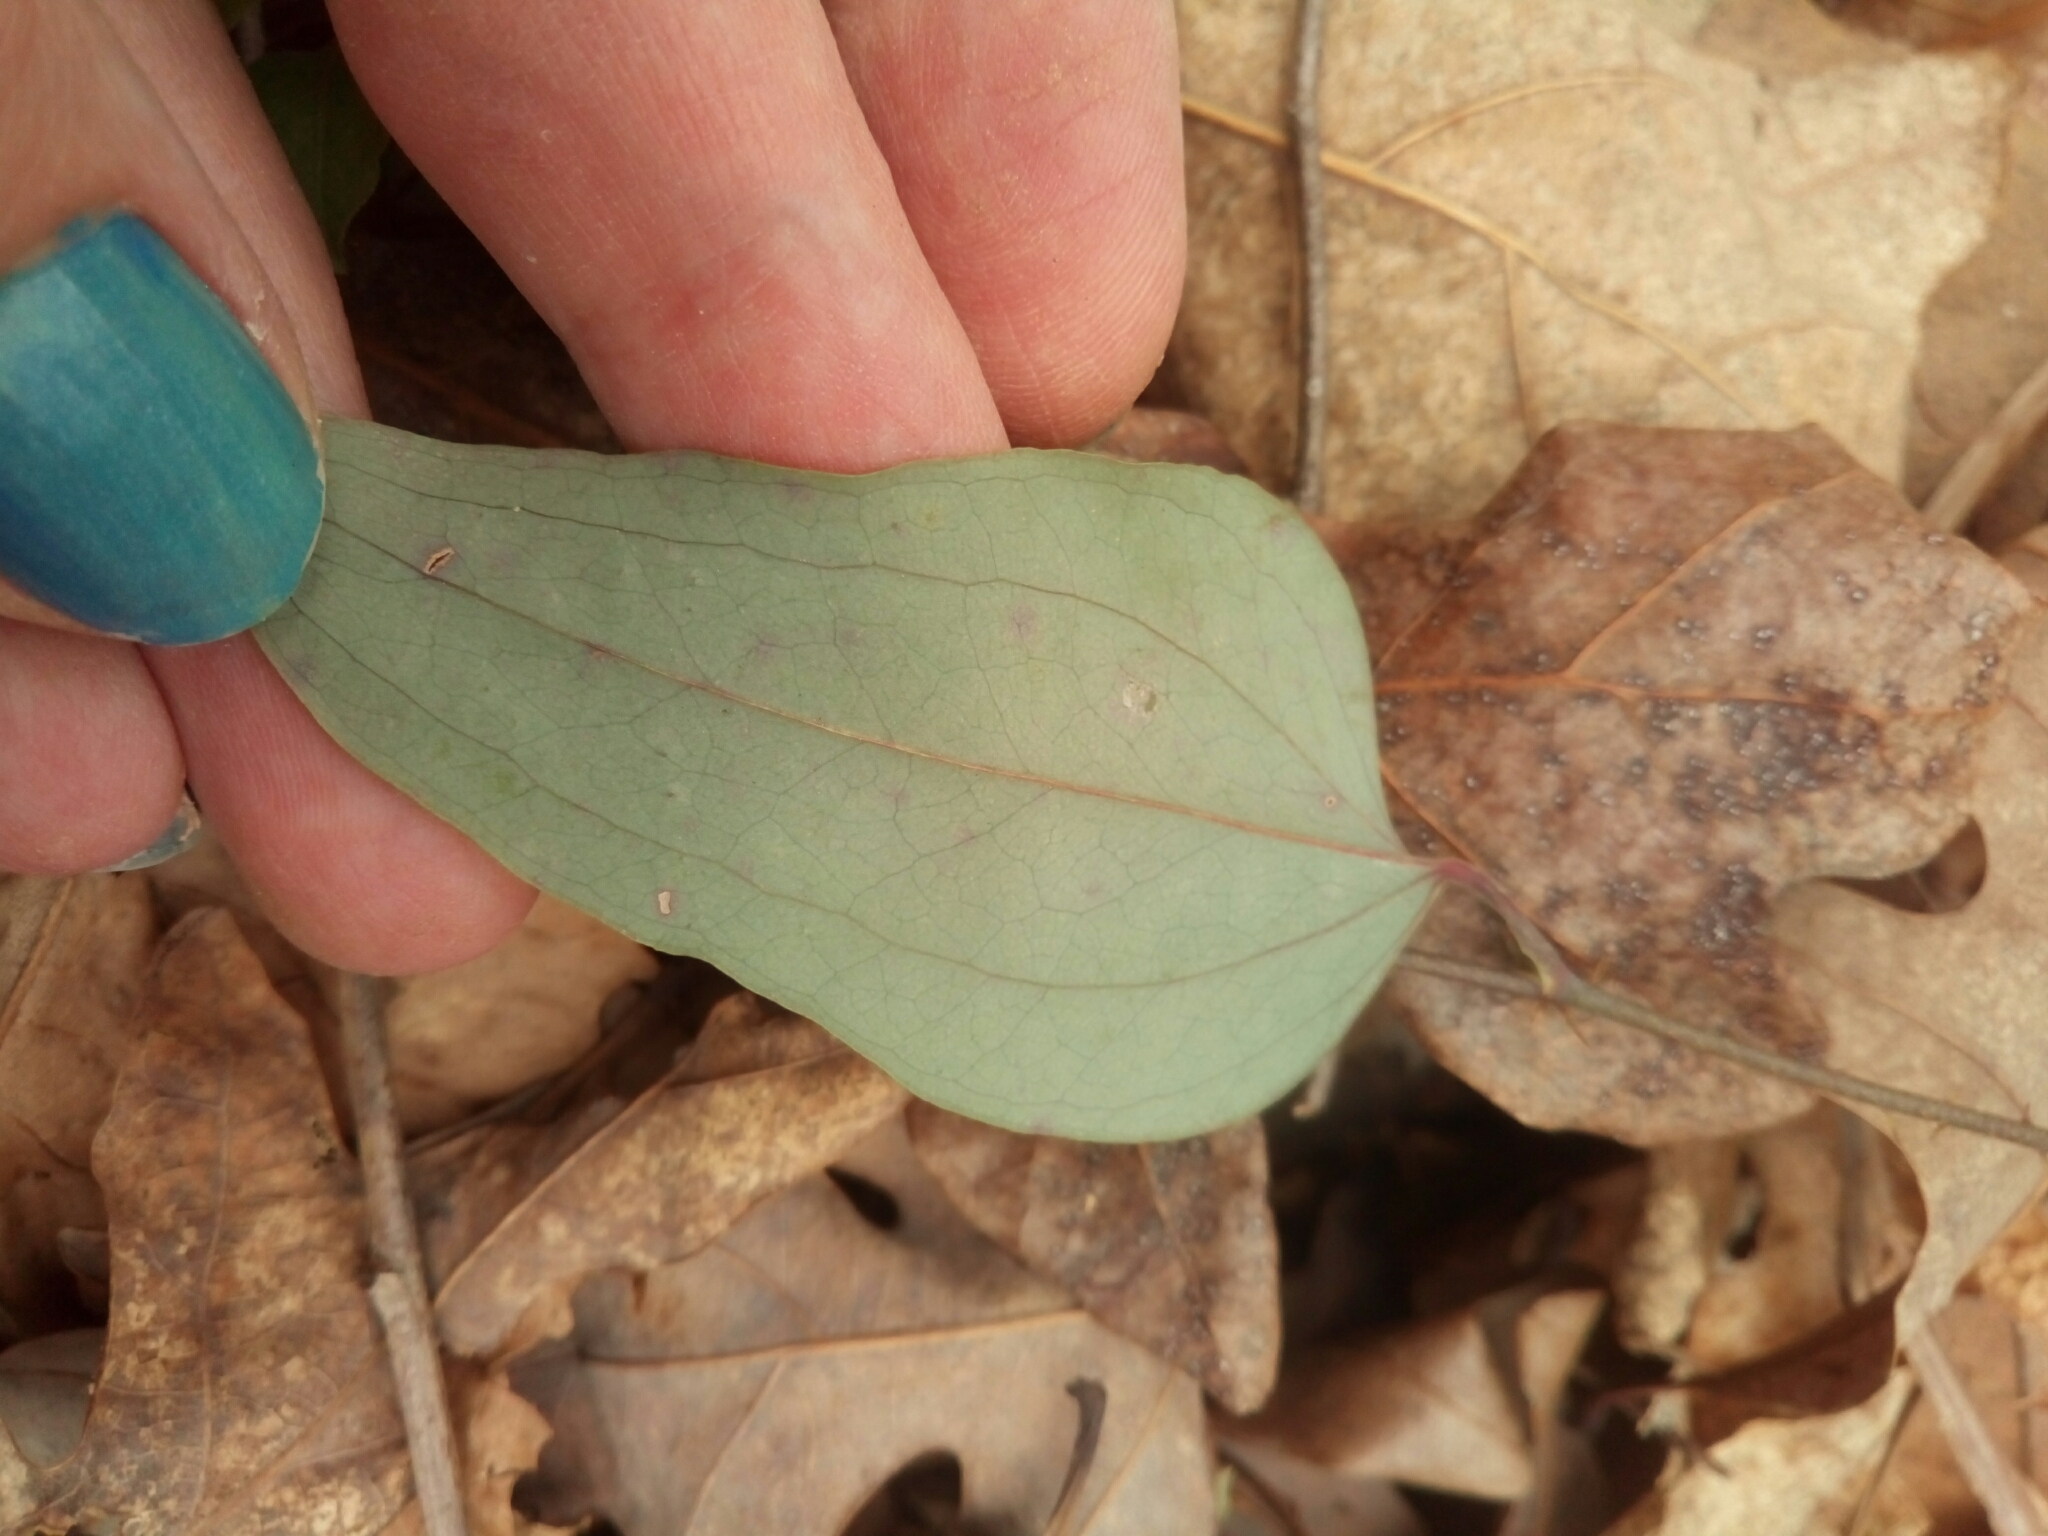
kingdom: Plantae
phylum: Tracheophyta
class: Liliopsida
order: Liliales
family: Smilacaceae
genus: Smilax
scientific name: Smilax glauca
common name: Cat greenbrier
